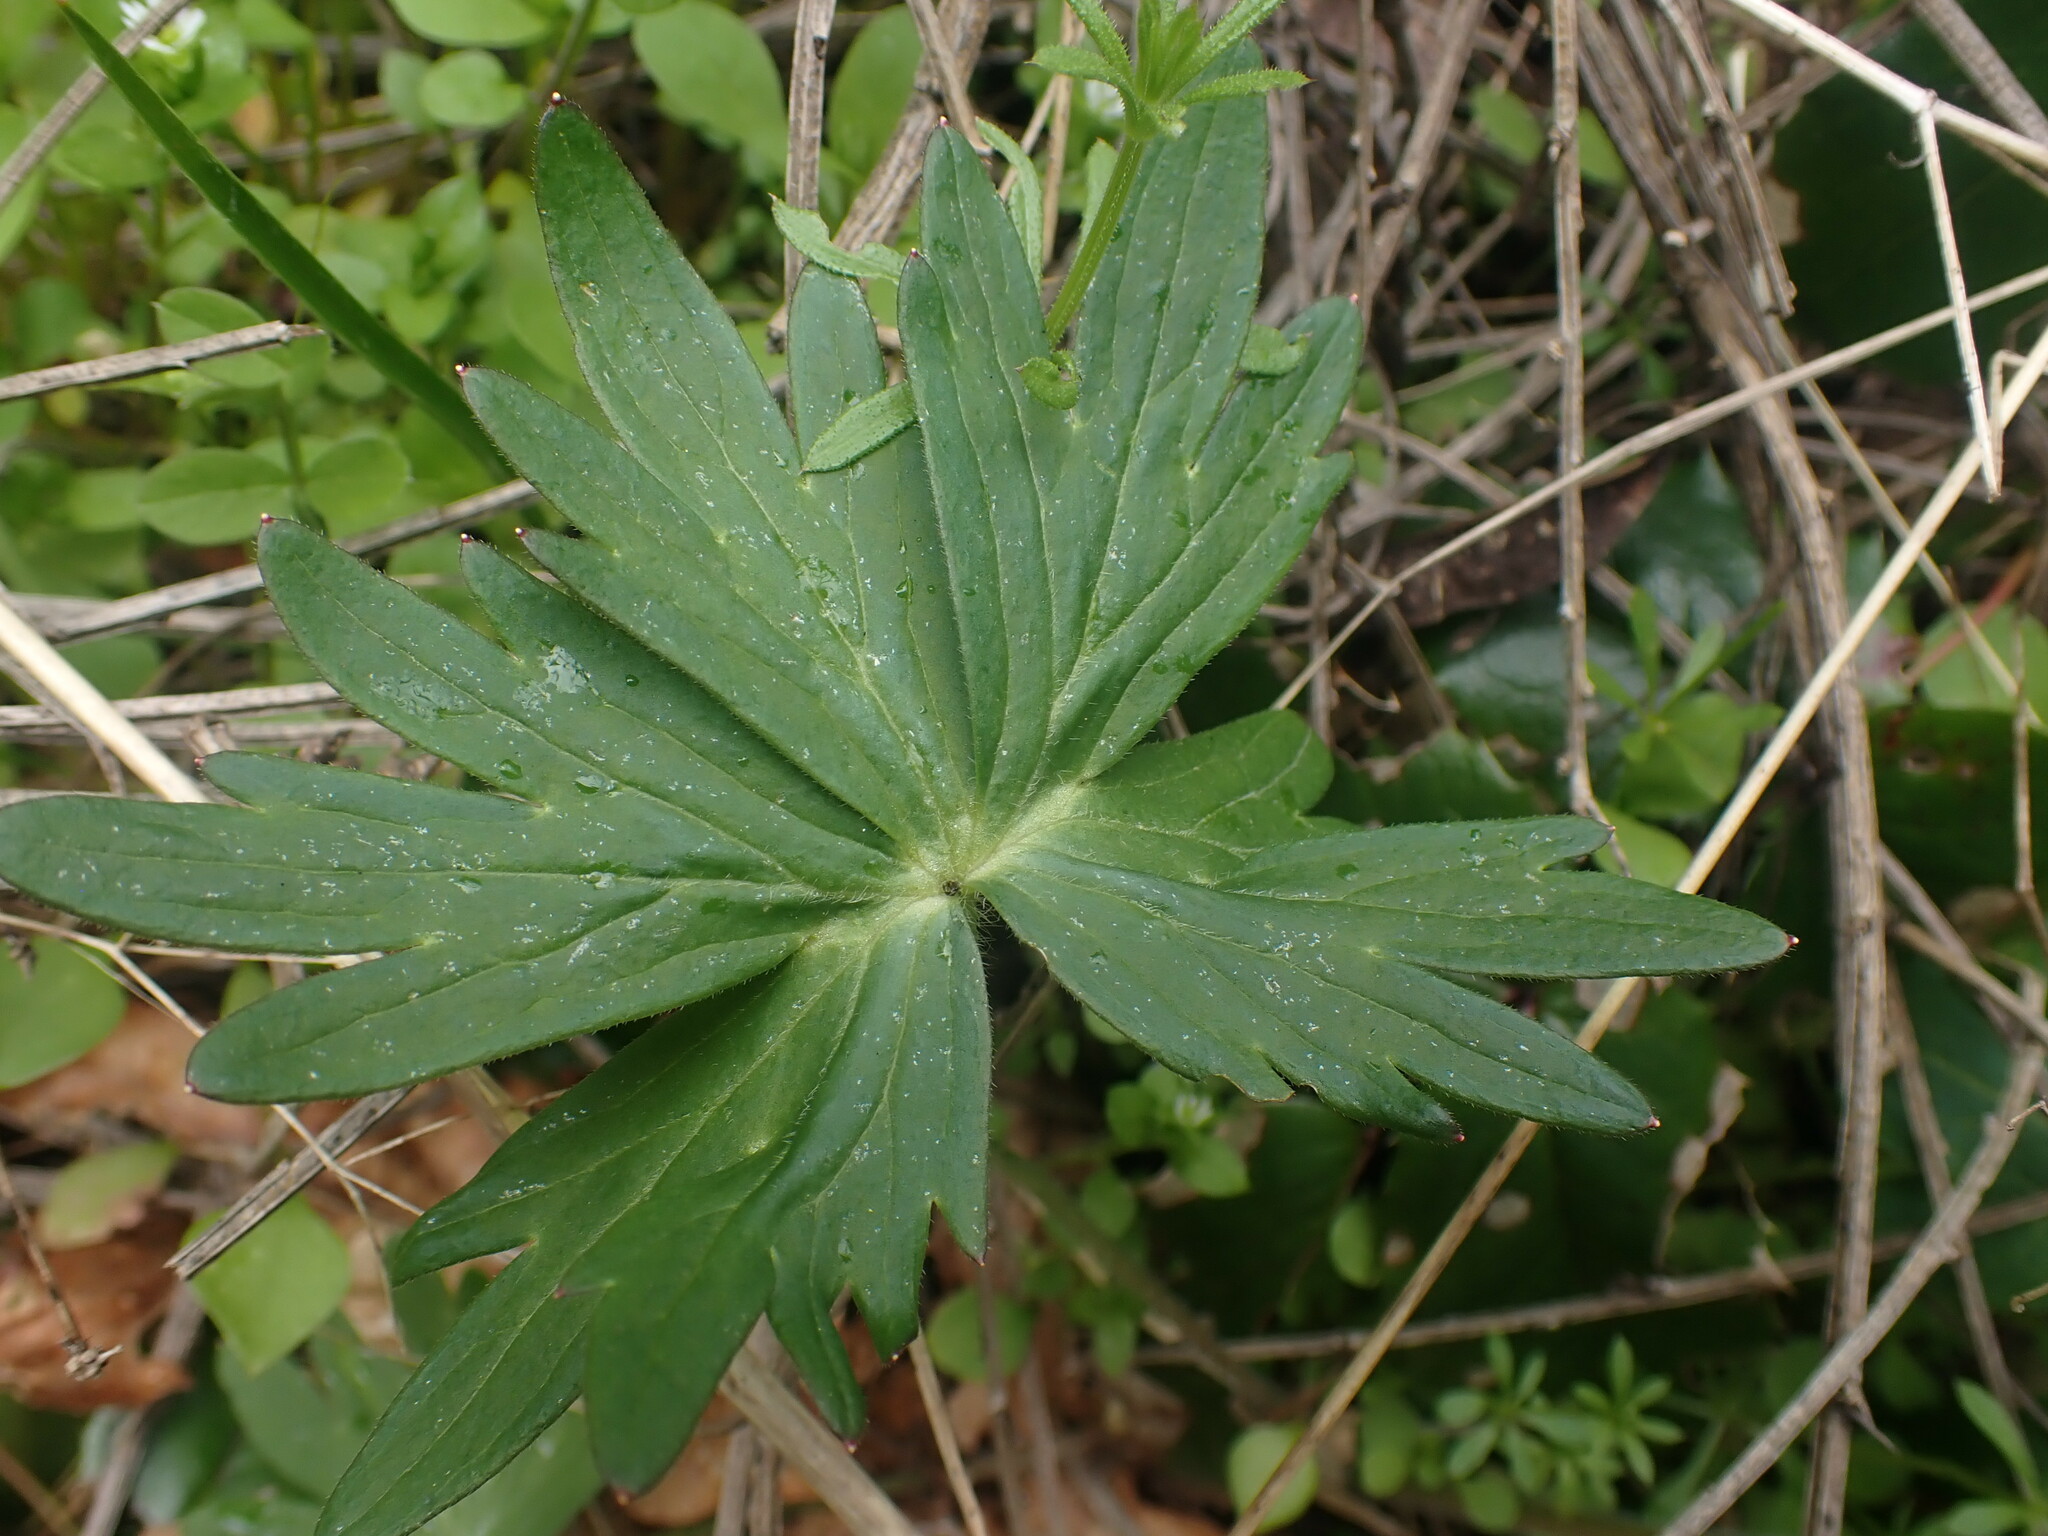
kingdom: Plantae
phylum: Tracheophyta
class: Magnoliopsida
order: Ranunculales
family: Ranunculaceae
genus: Delphinium
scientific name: Delphinium menziesii
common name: Menzies's larkspur
